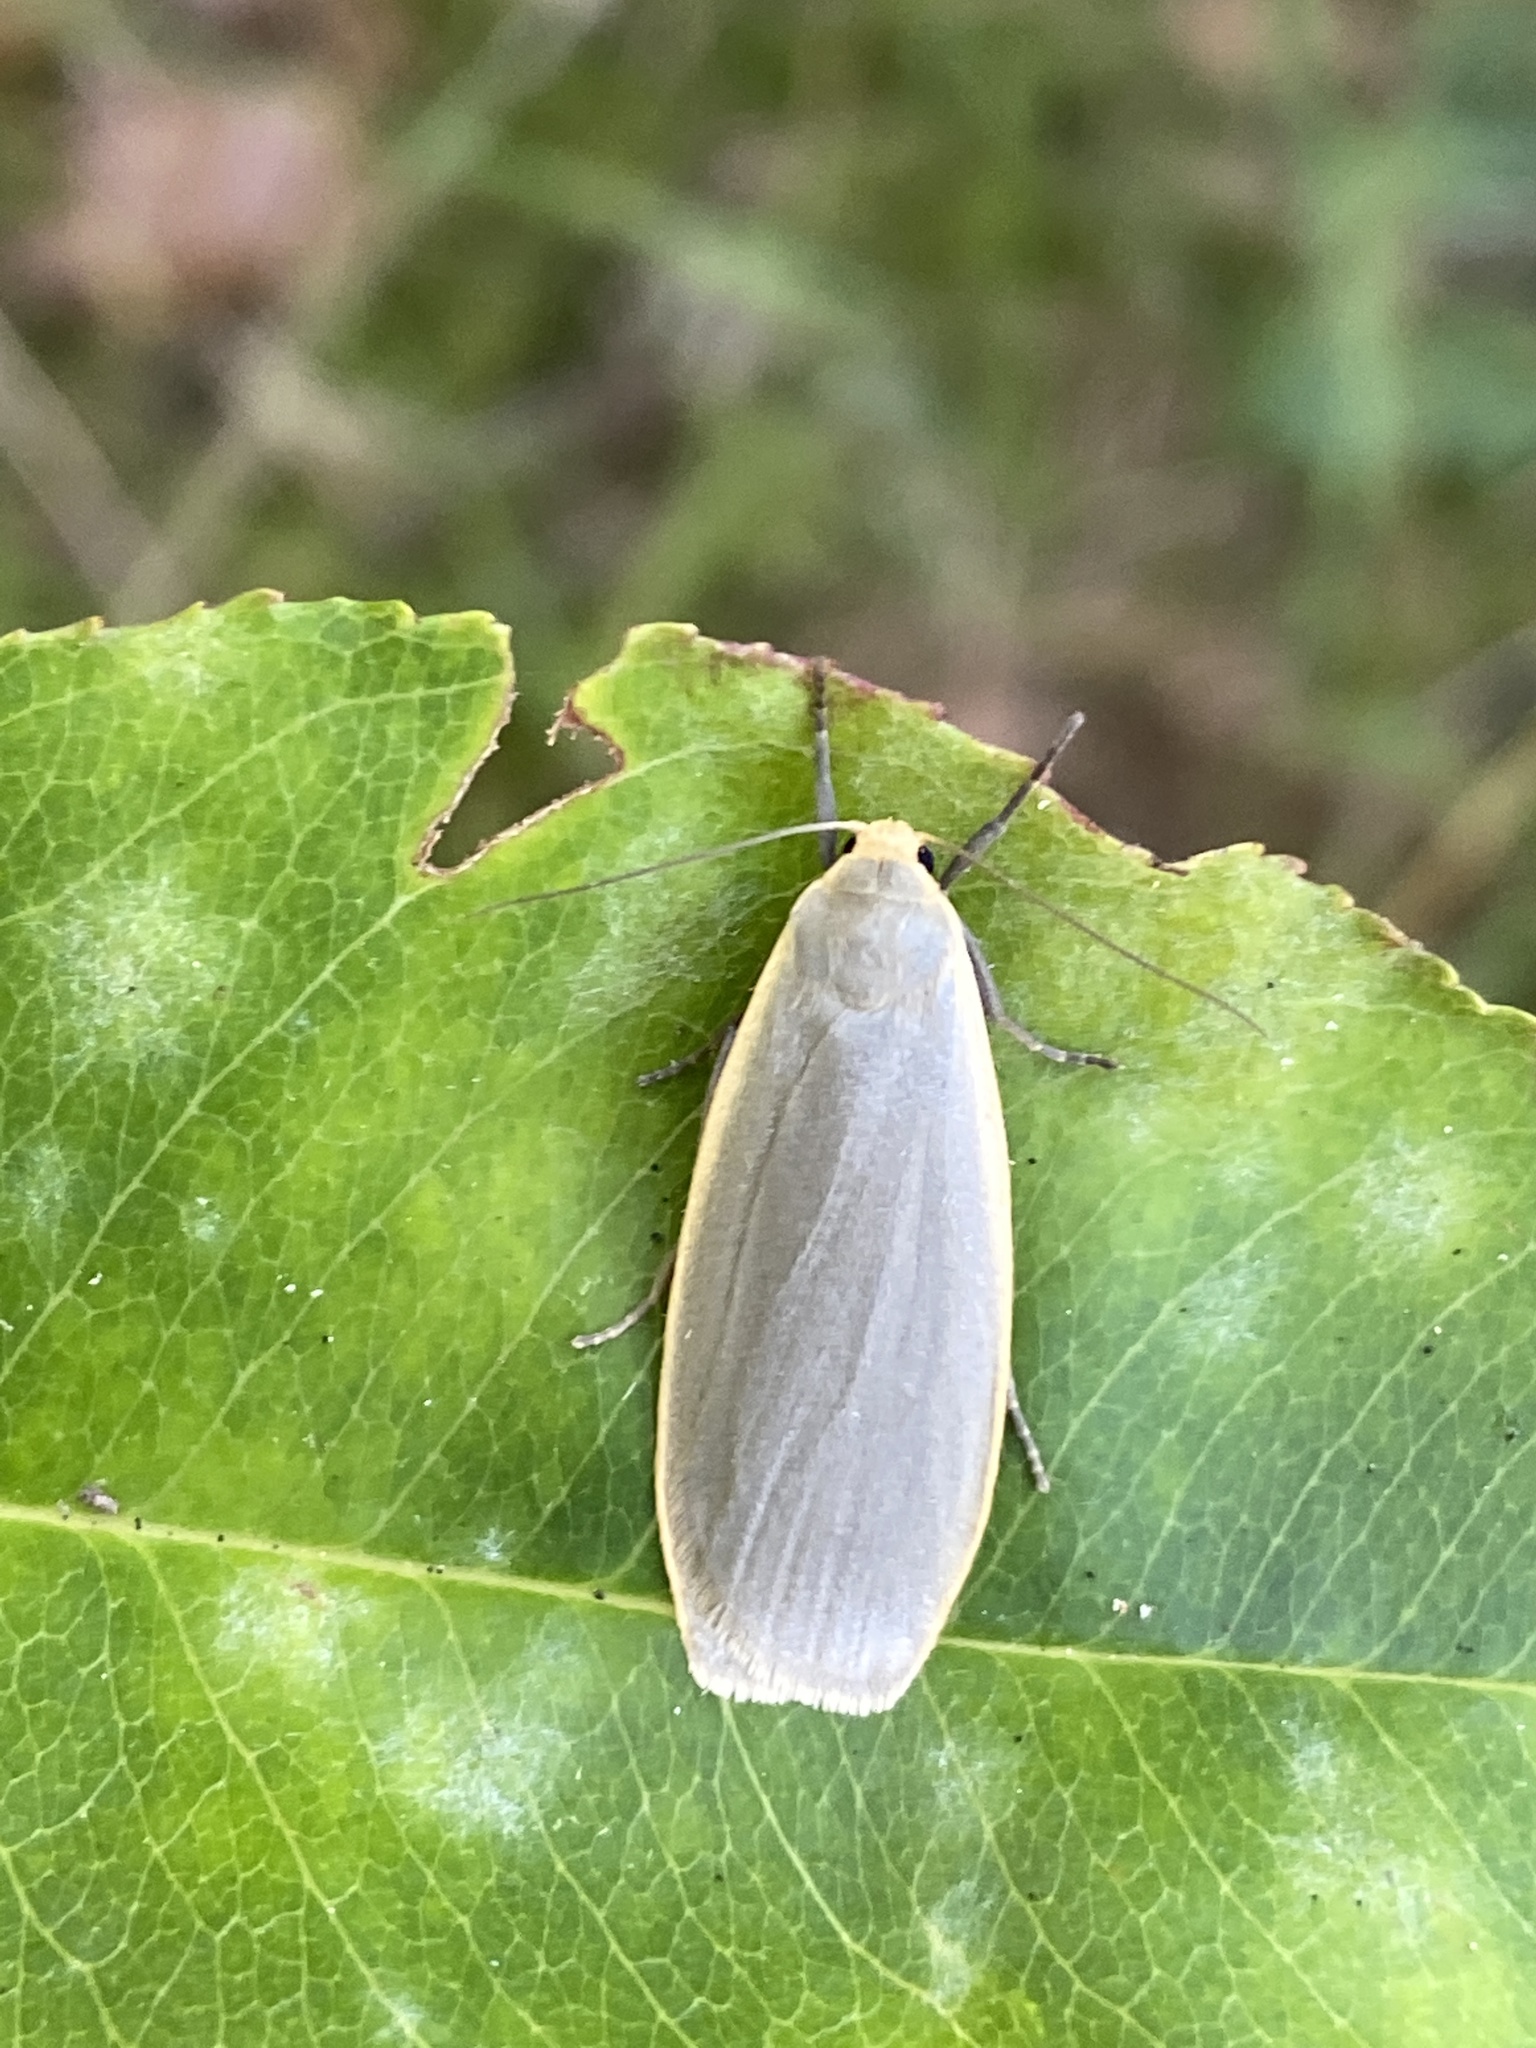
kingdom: Animalia
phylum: Arthropoda
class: Insecta
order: Lepidoptera
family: Erebidae
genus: Collita
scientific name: Collita griseola
